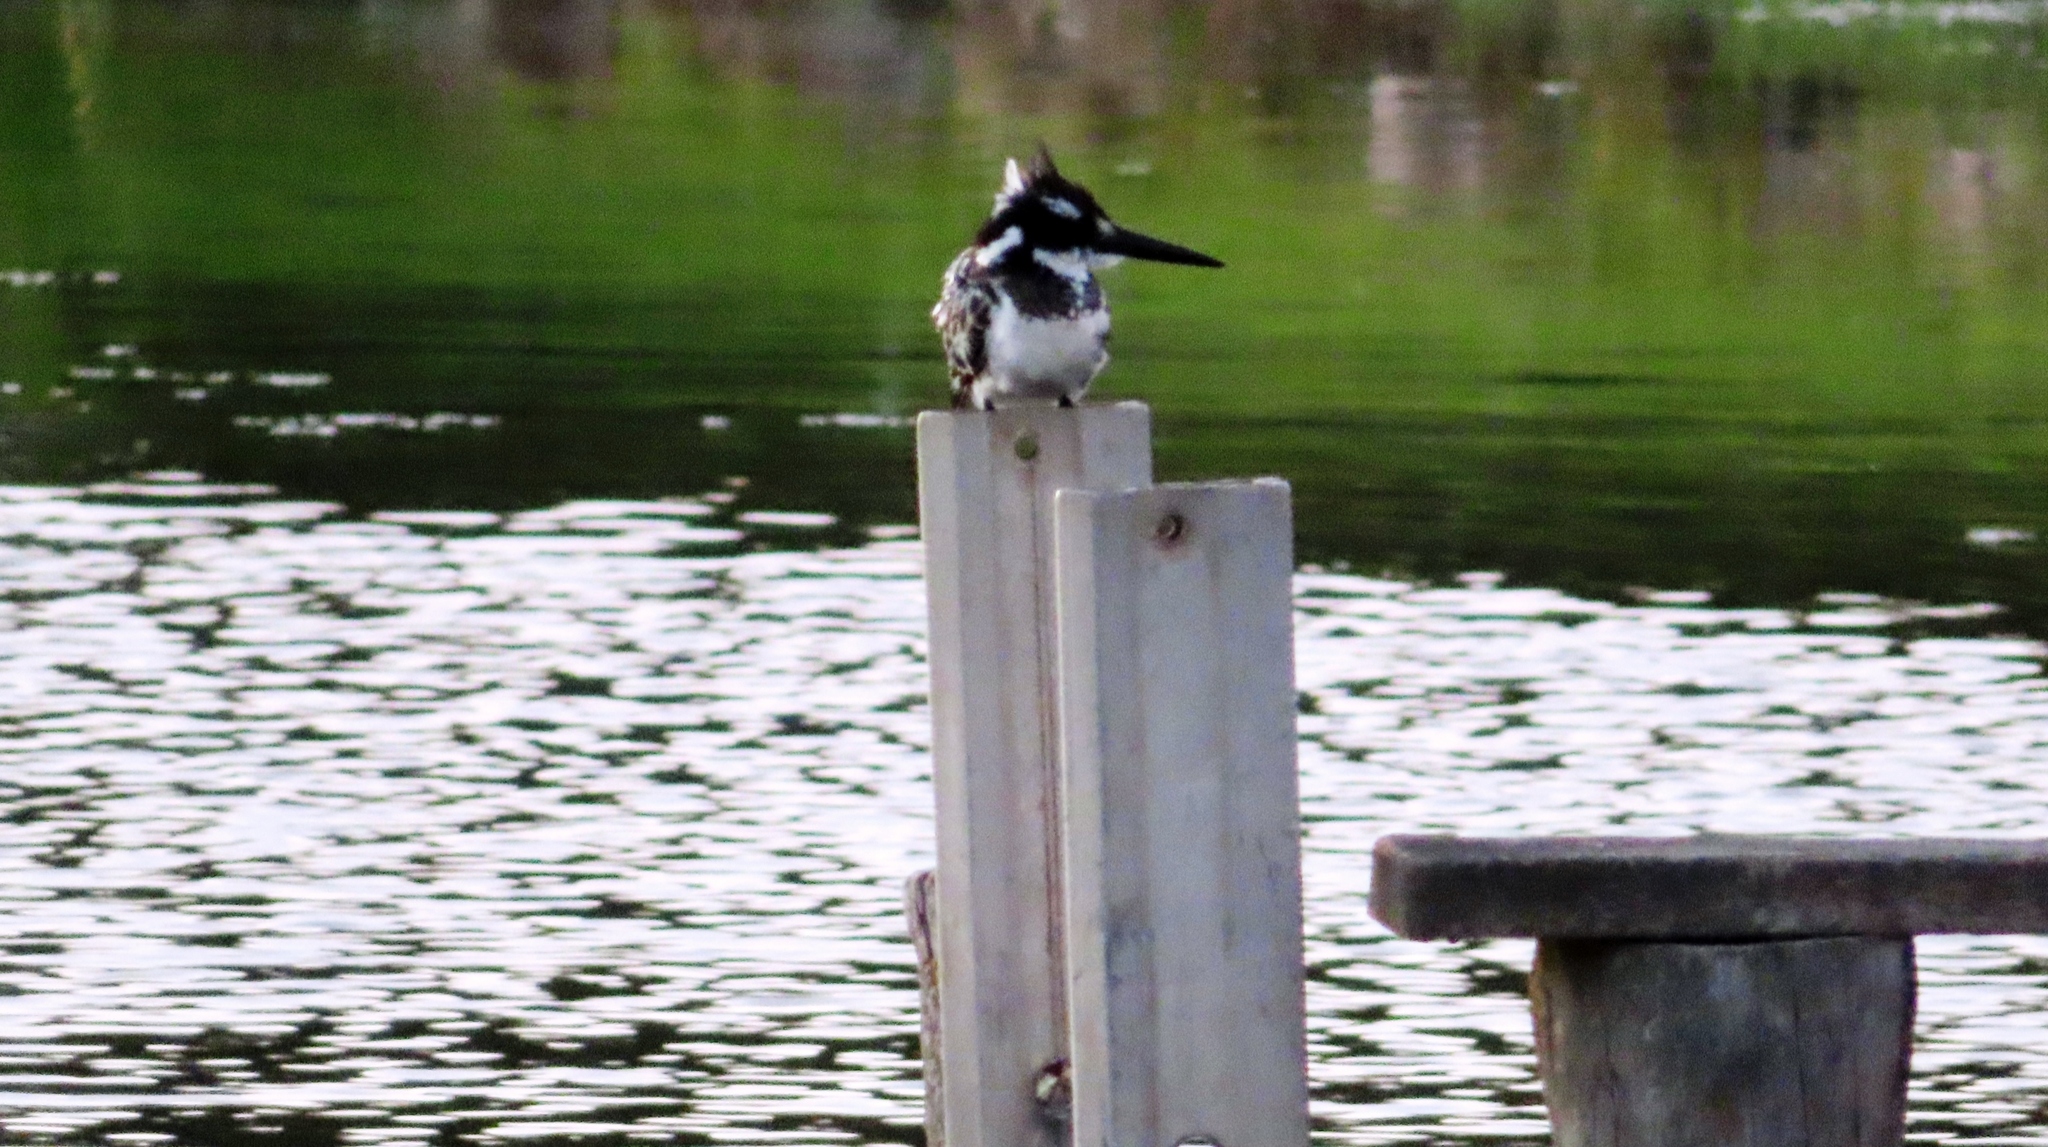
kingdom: Animalia
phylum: Chordata
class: Aves
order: Coraciiformes
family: Alcedinidae
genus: Ceryle
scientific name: Ceryle rudis
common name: Pied kingfisher
